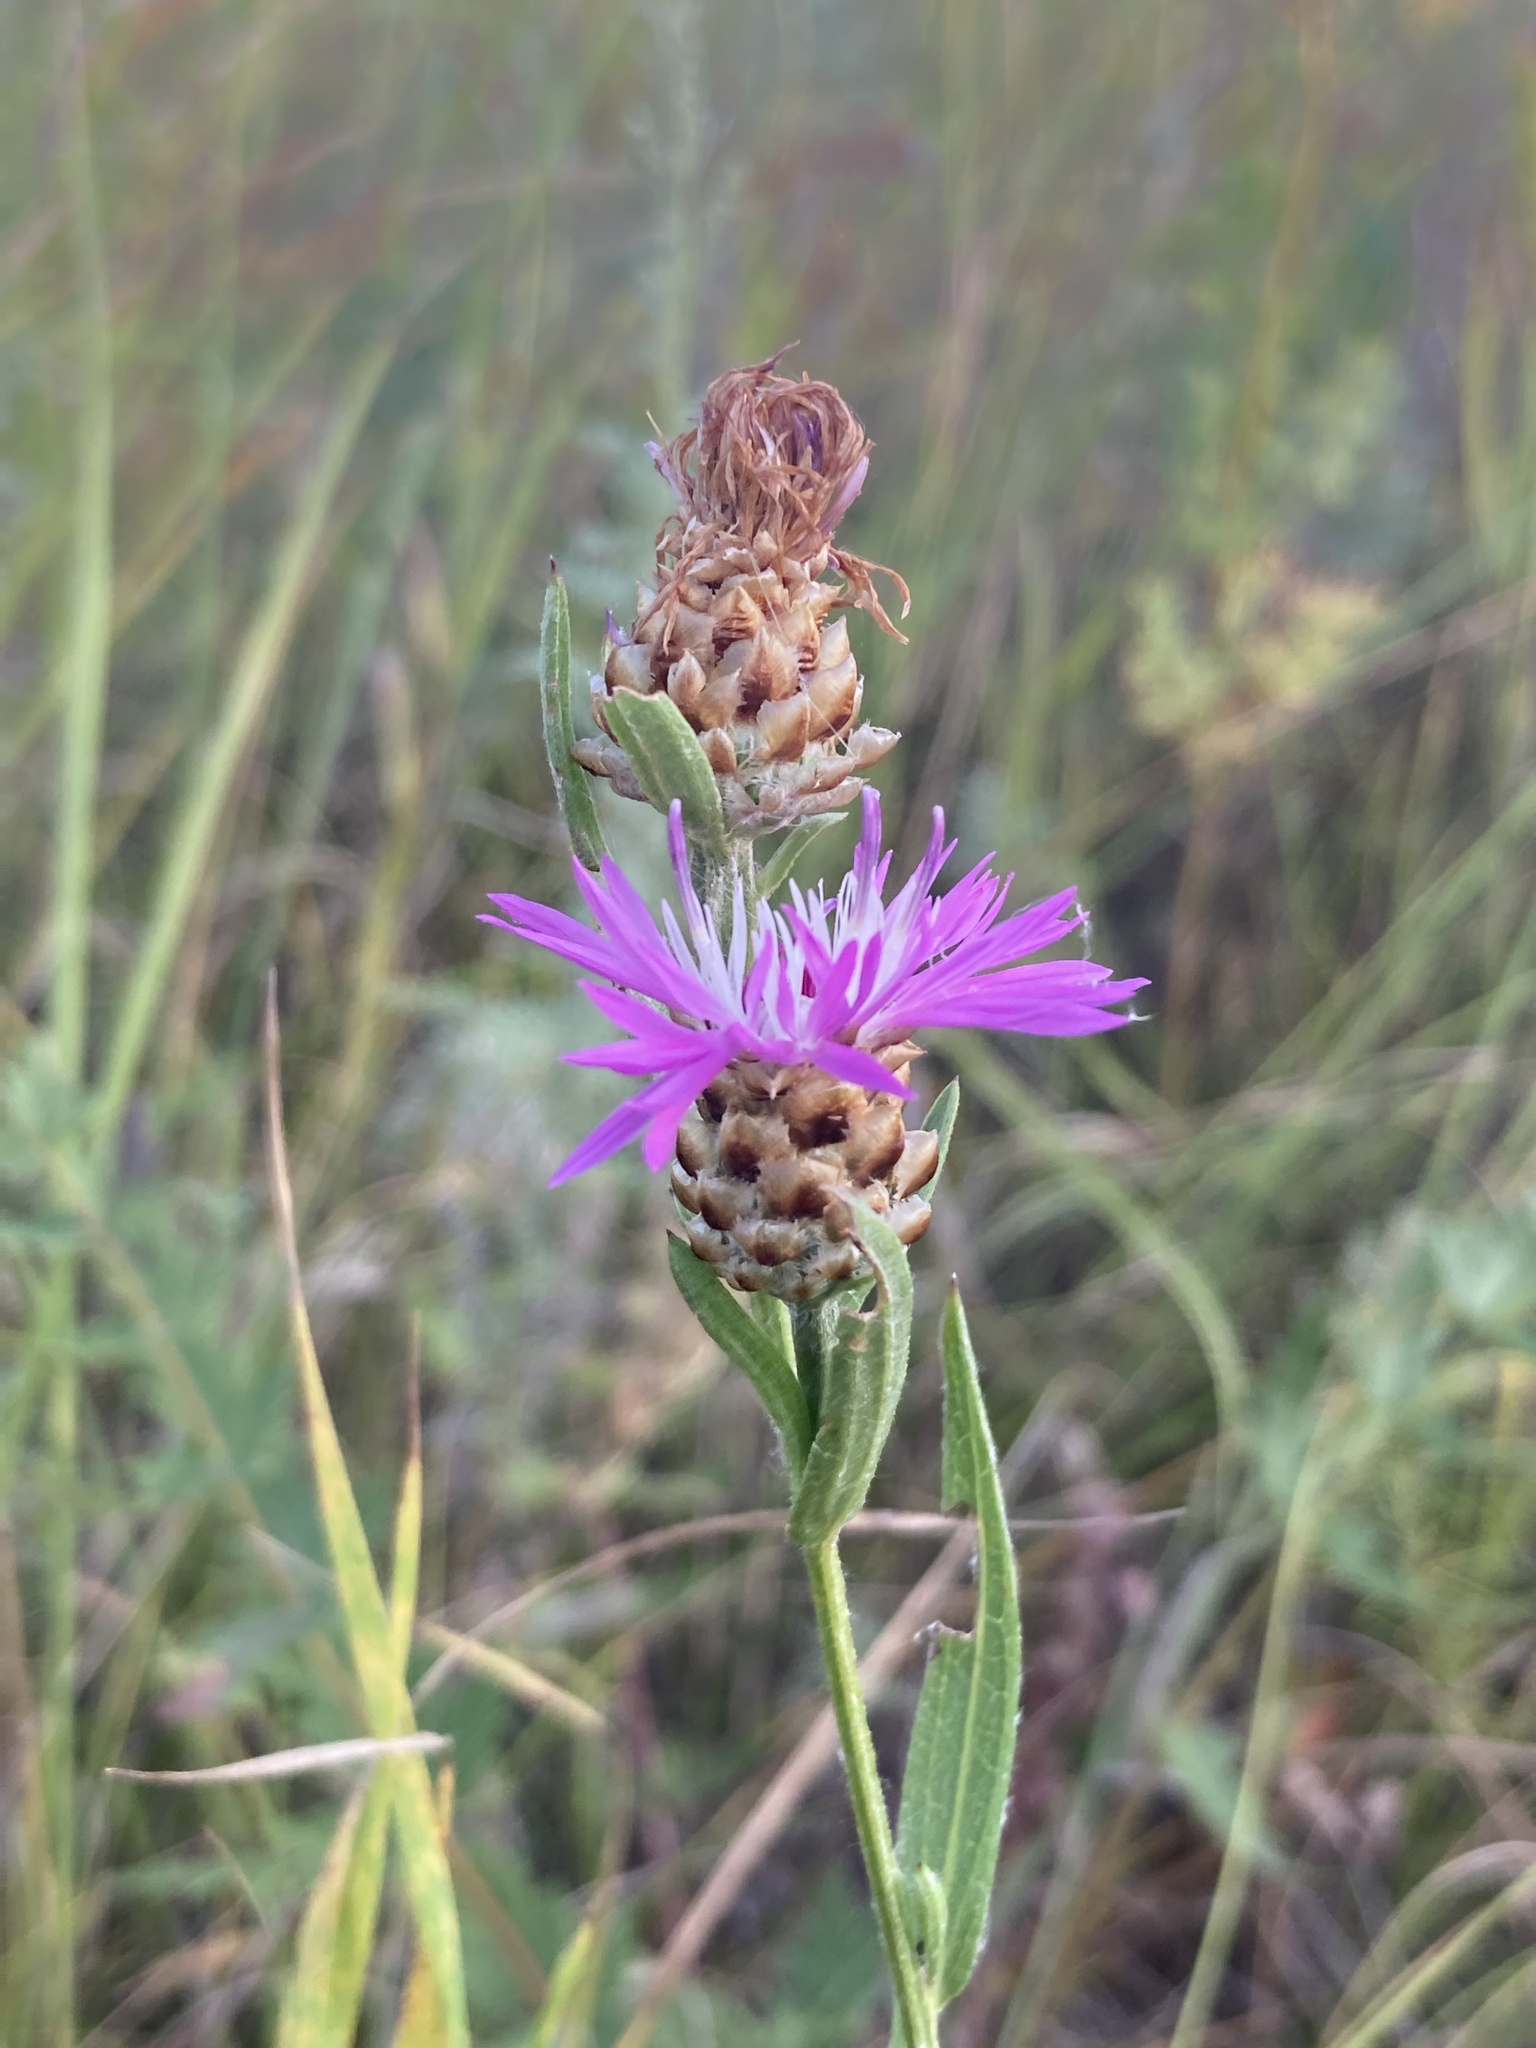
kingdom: Plantae
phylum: Tracheophyta
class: Magnoliopsida
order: Asterales
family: Asteraceae
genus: Centaurea
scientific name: Centaurea jacea
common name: Brown knapweed
